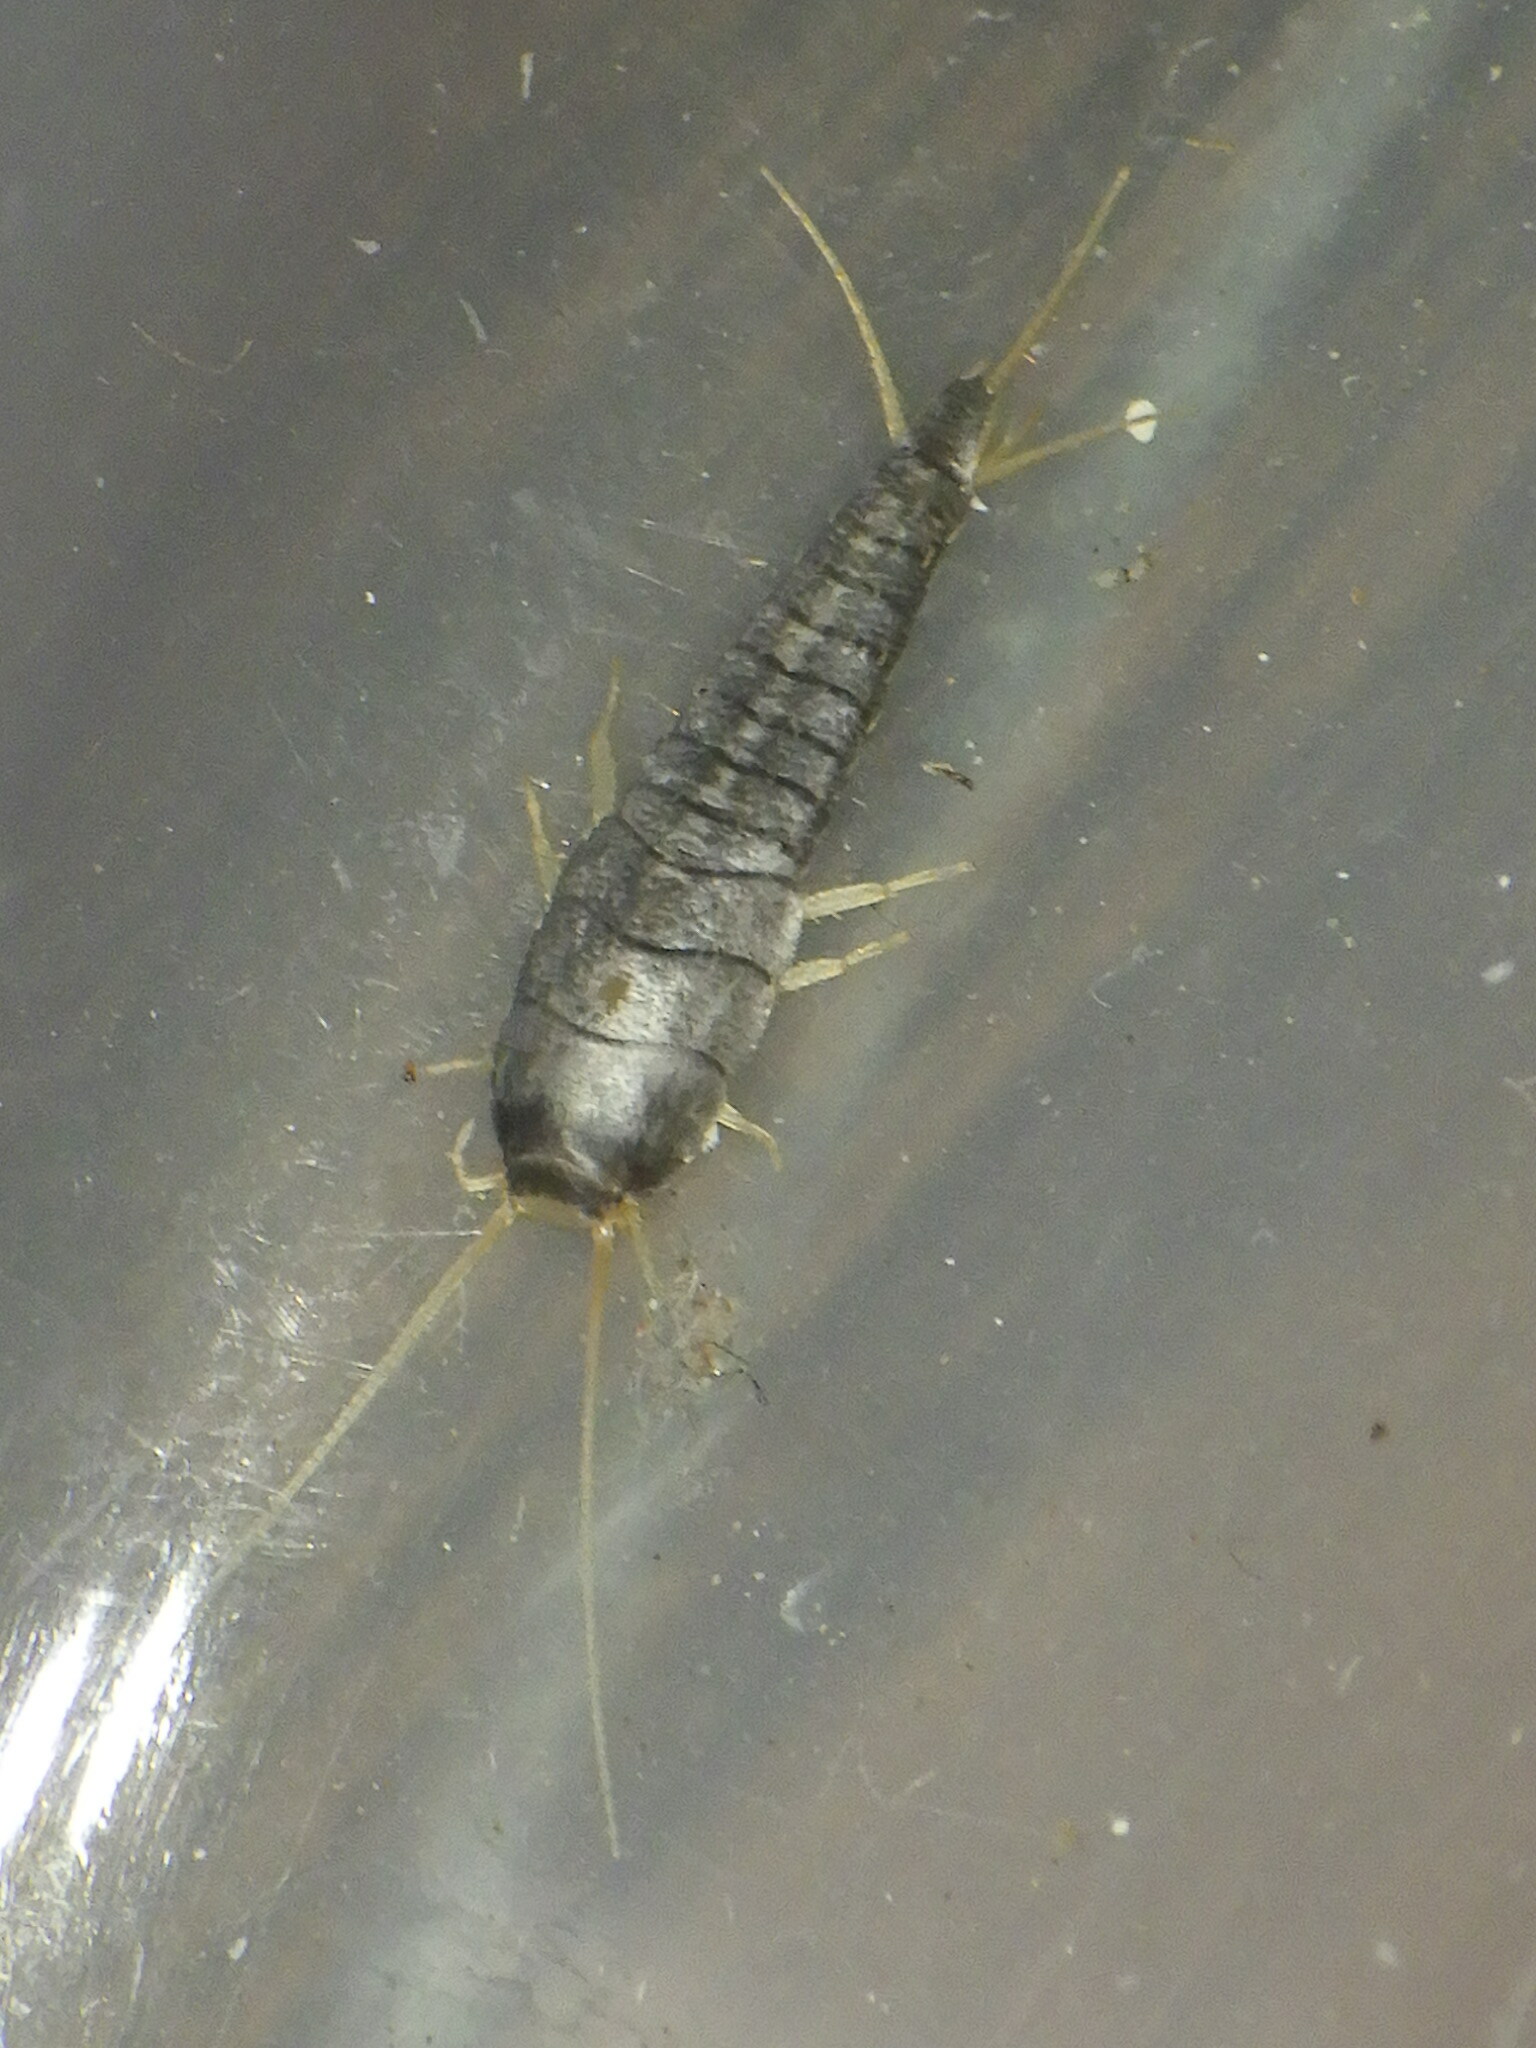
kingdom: Animalia
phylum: Arthropoda
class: Insecta
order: Zygentoma
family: Lepismatidae
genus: Lepisma
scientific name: Lepisma saccharinum
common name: Silverfish
